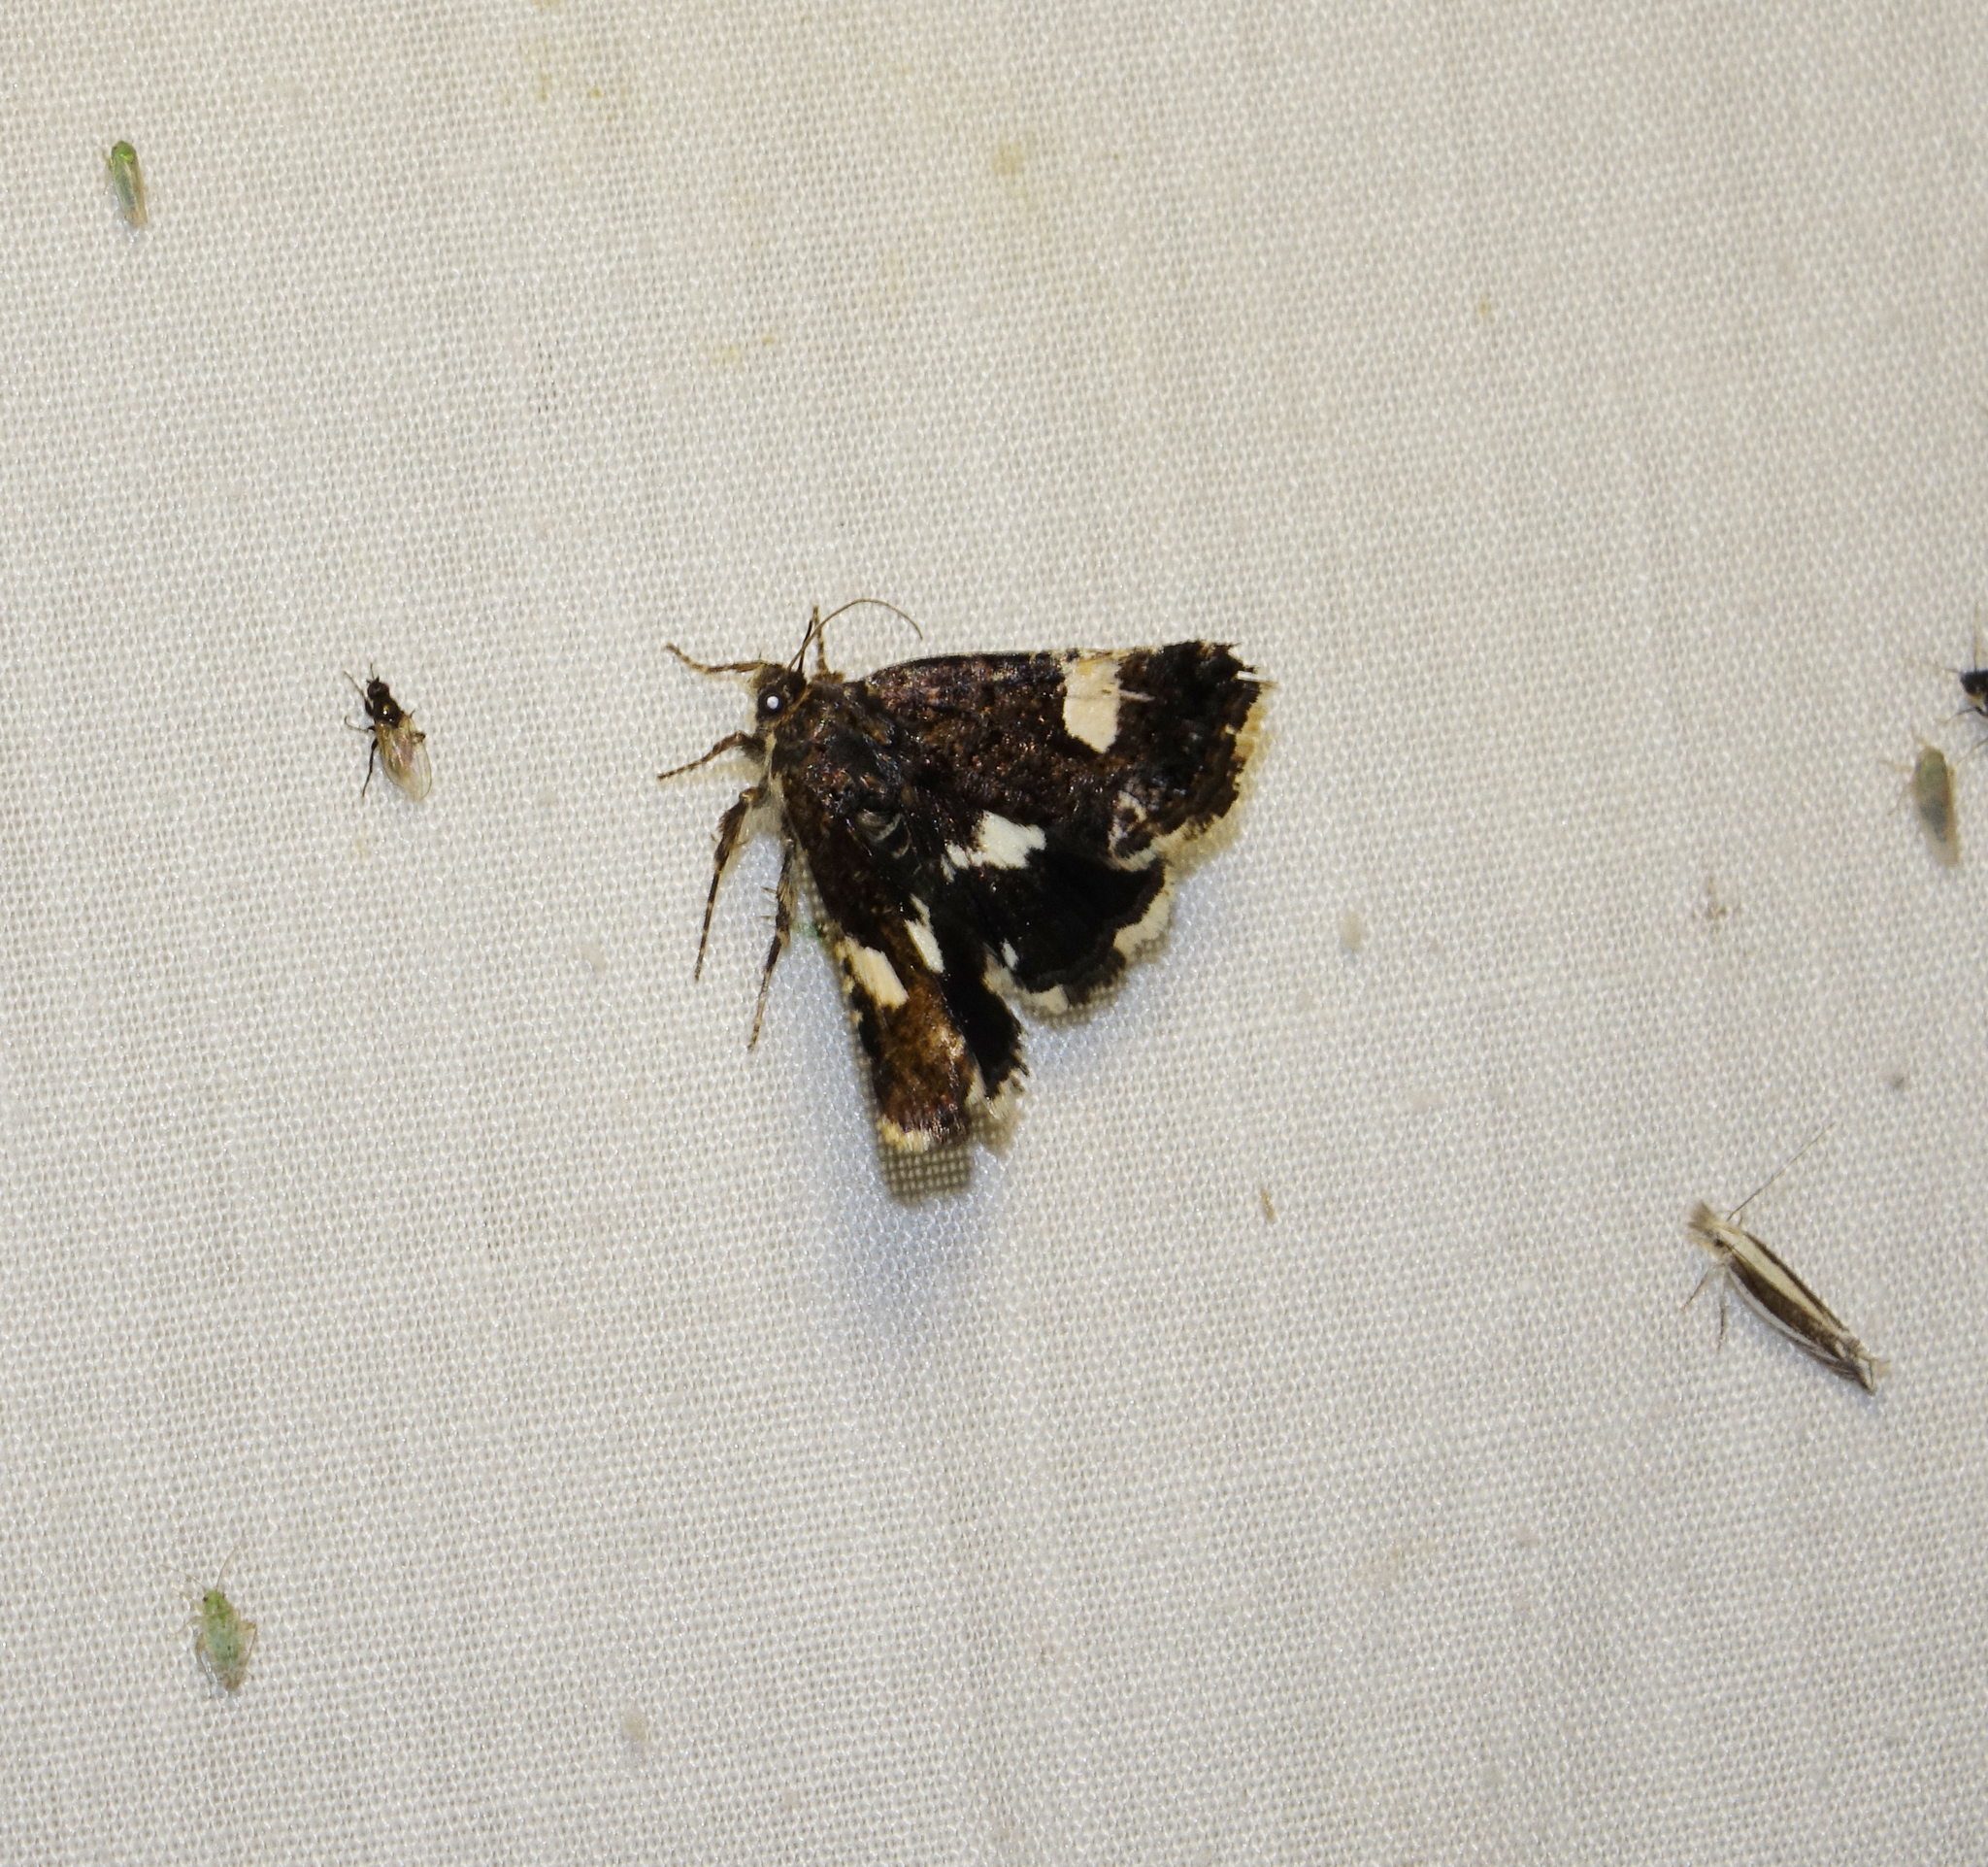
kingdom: Animalia
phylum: Arthropoda
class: Insecta
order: Lepidoptera
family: Erebidae
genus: Tyta
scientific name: Tyta luctuosa
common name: Four-spotted
